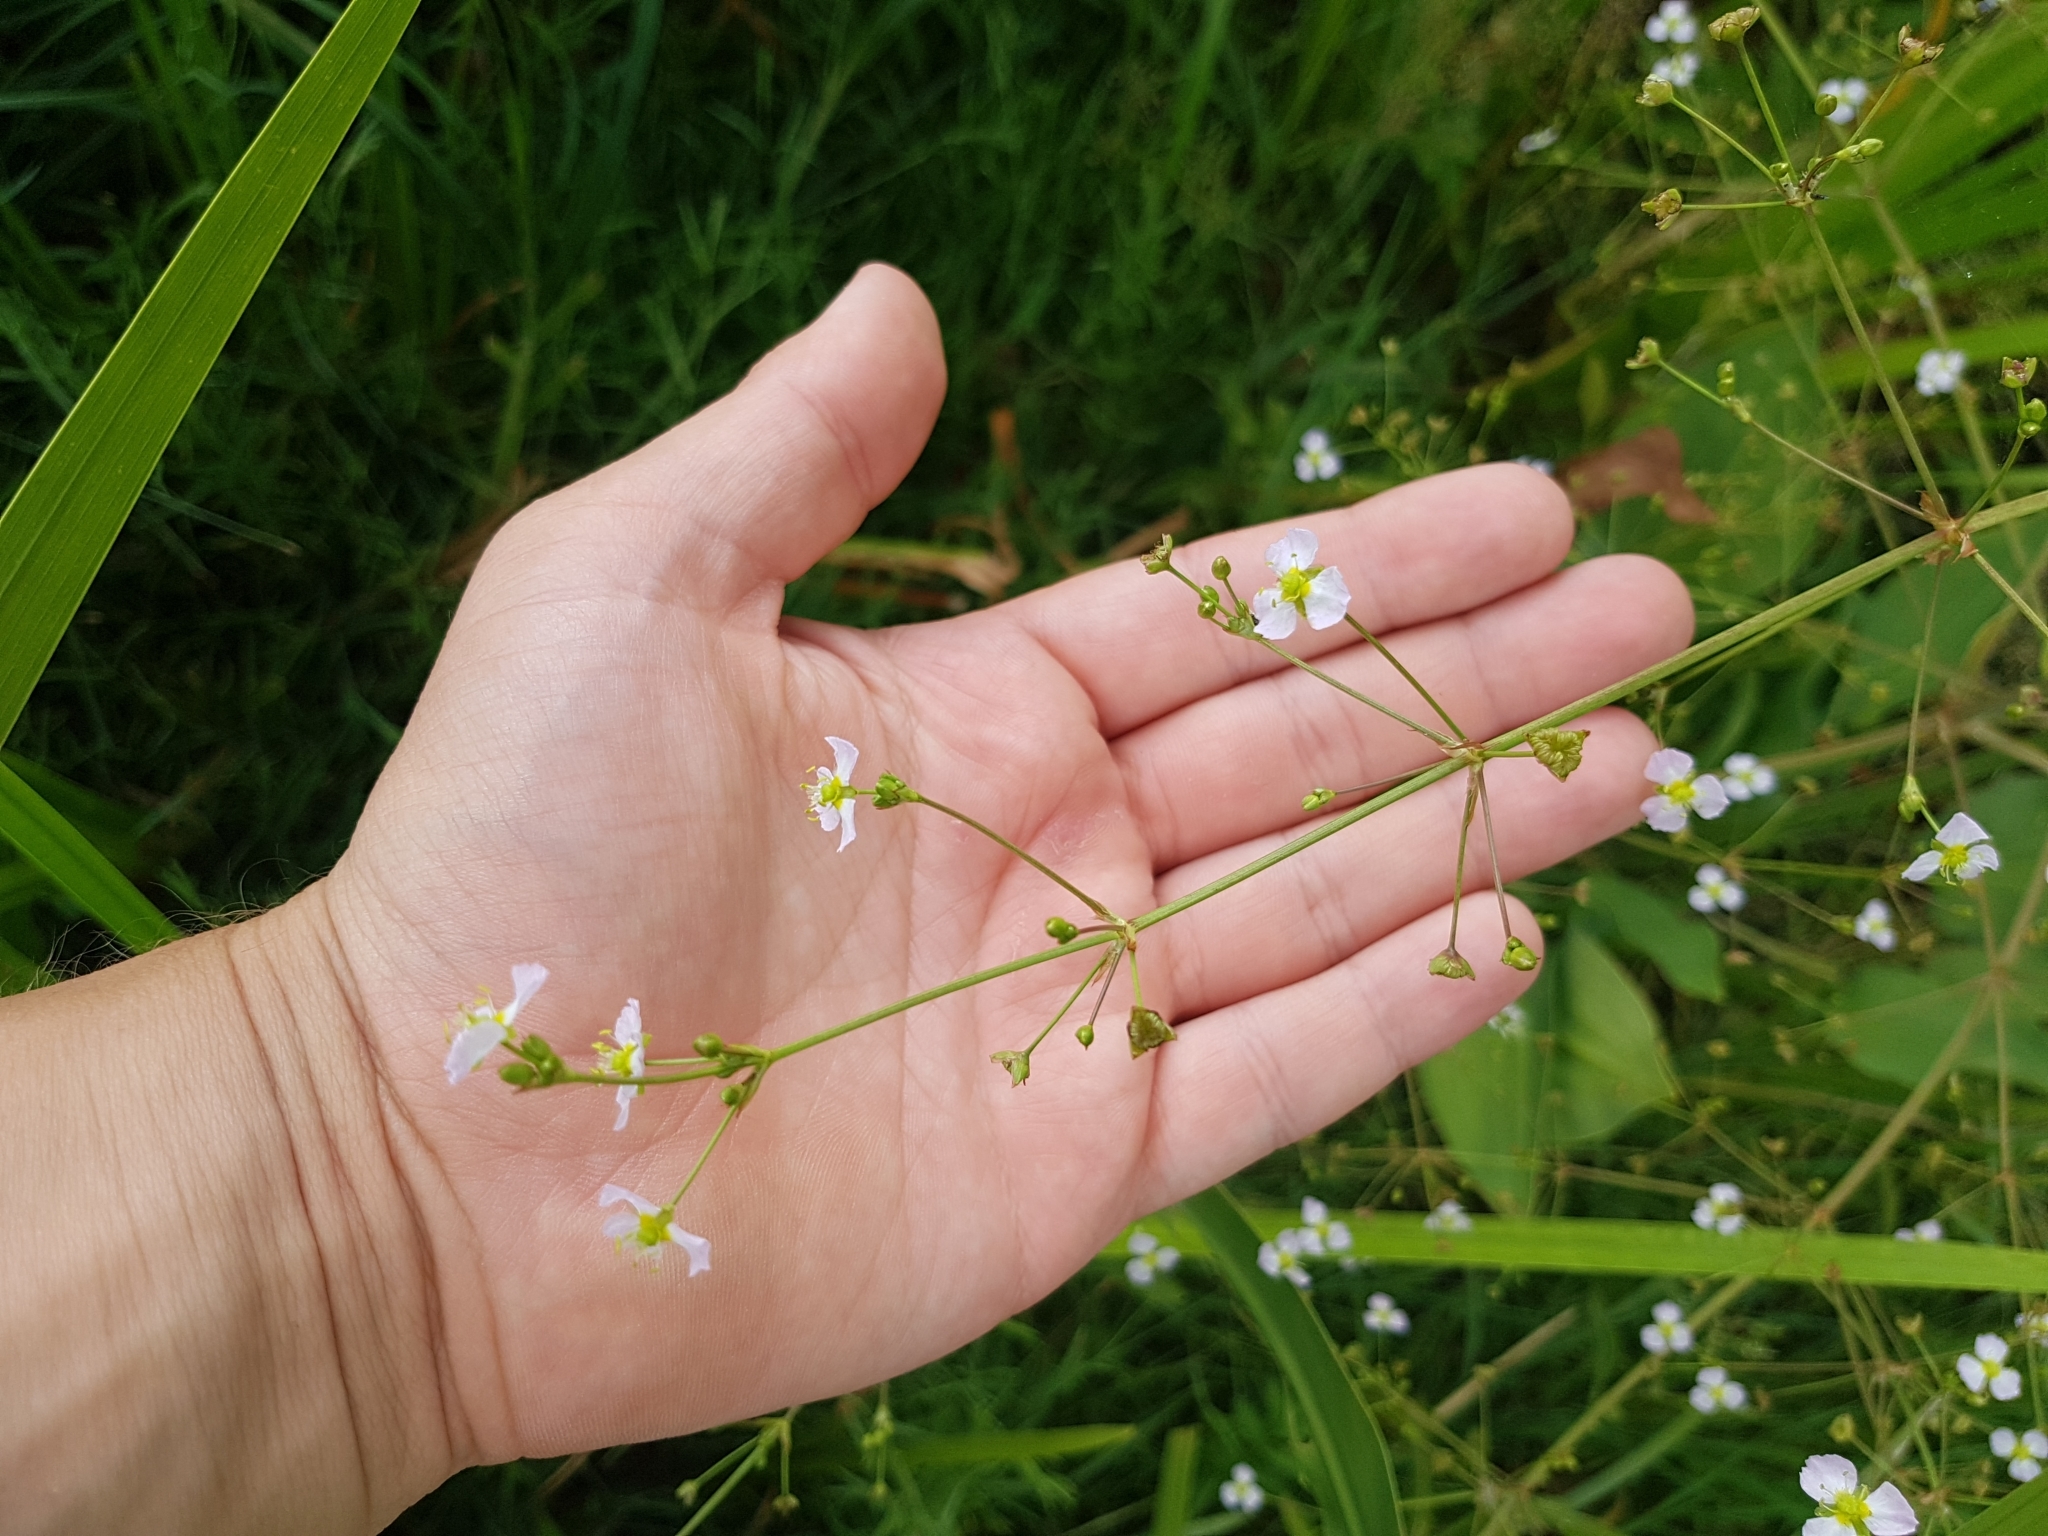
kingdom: Plantae
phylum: Tracheophyta
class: Liliopsida
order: Alismatales
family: Alismataceae
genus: Alisma
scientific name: Alisma plantago-aquatica
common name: Water-plantain
